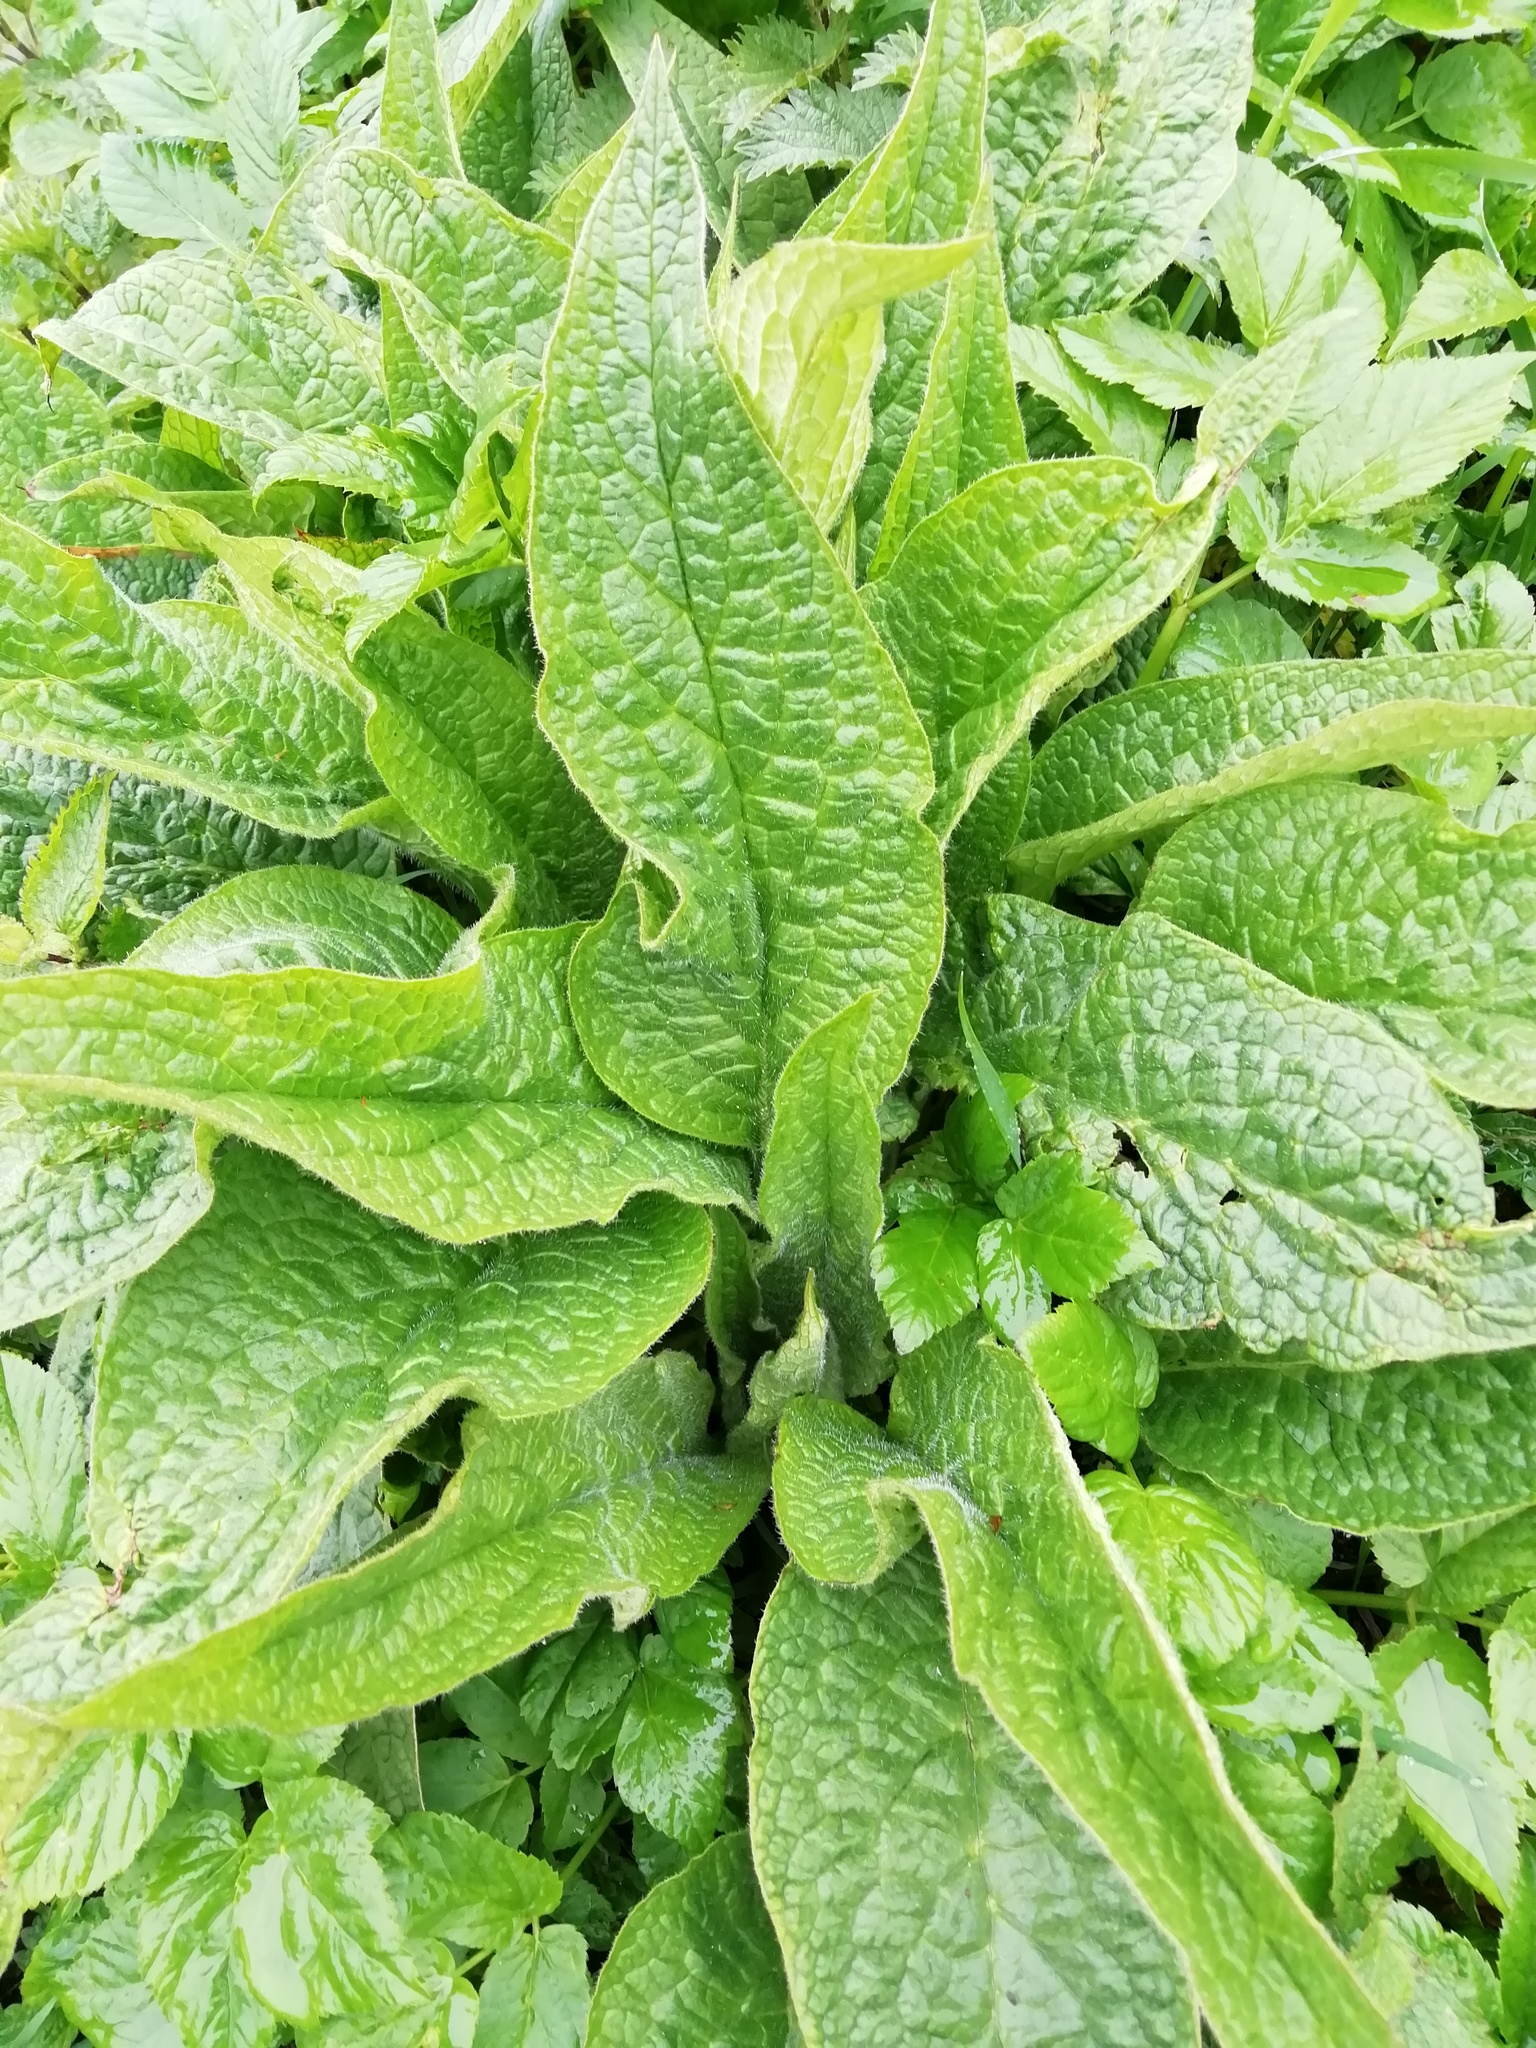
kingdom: Plantae
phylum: Tracheophyta
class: Magnoliopsida
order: Boraginales
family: Boraginaceae
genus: Symphytum
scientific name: Symphytum uplandicum
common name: Russian comfrey
